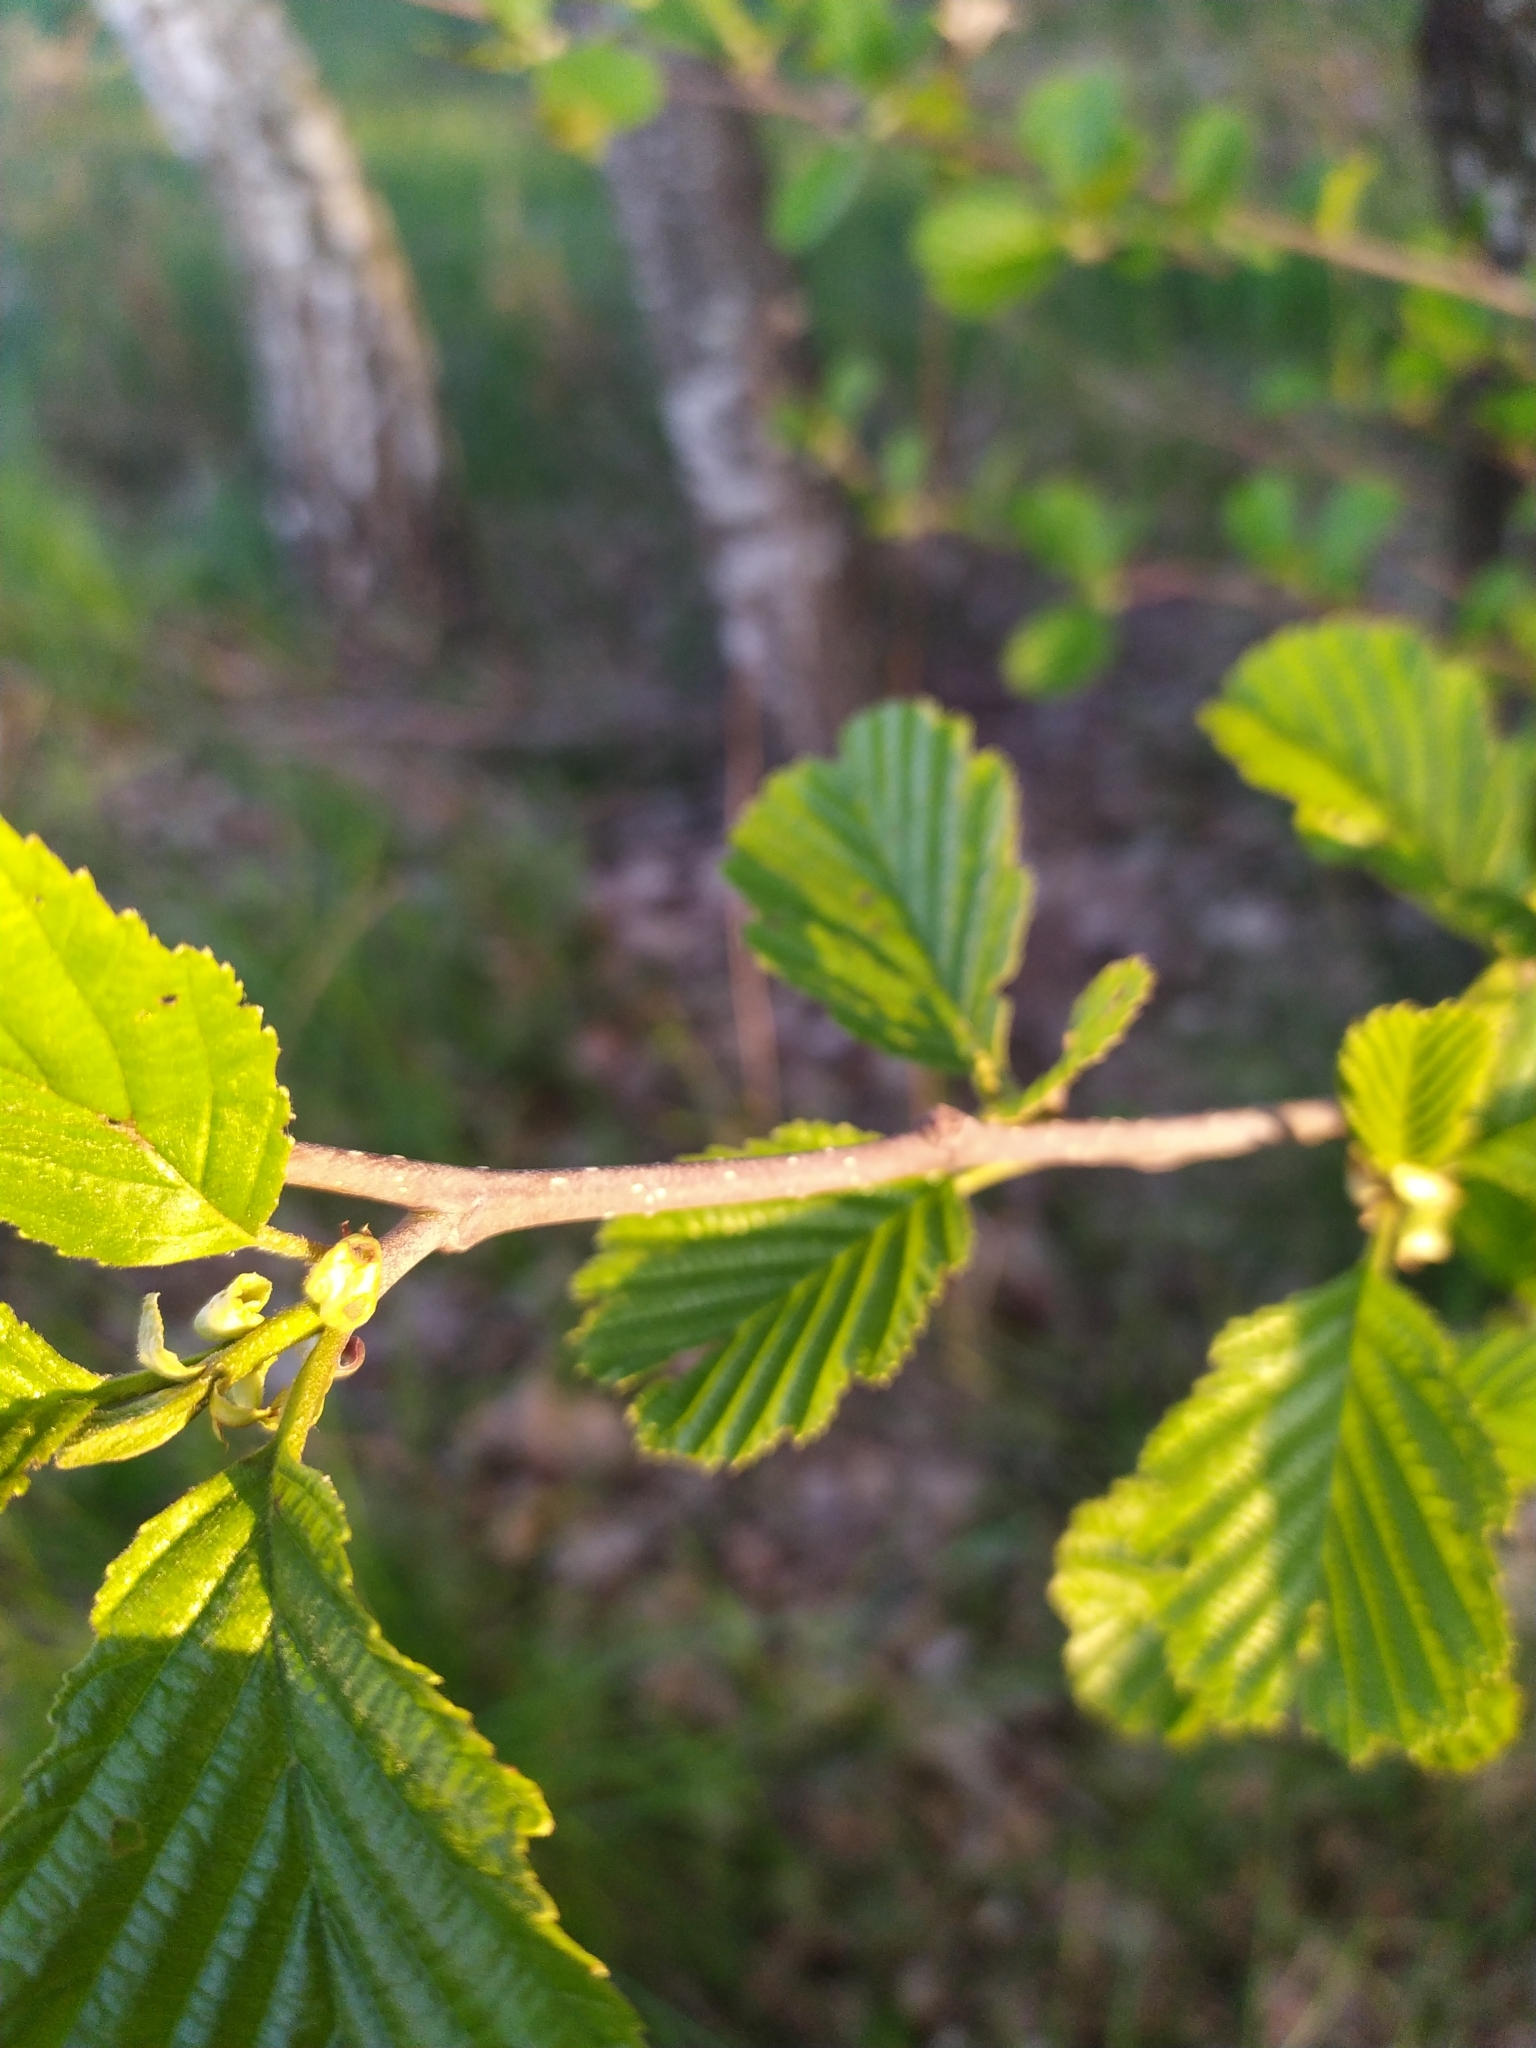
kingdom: Plantae
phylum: Tracheophyta
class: Magnoliopsida
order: Fagales
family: Betulaceae
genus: Alnus
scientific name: Alnus glutinosa
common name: Black alder
